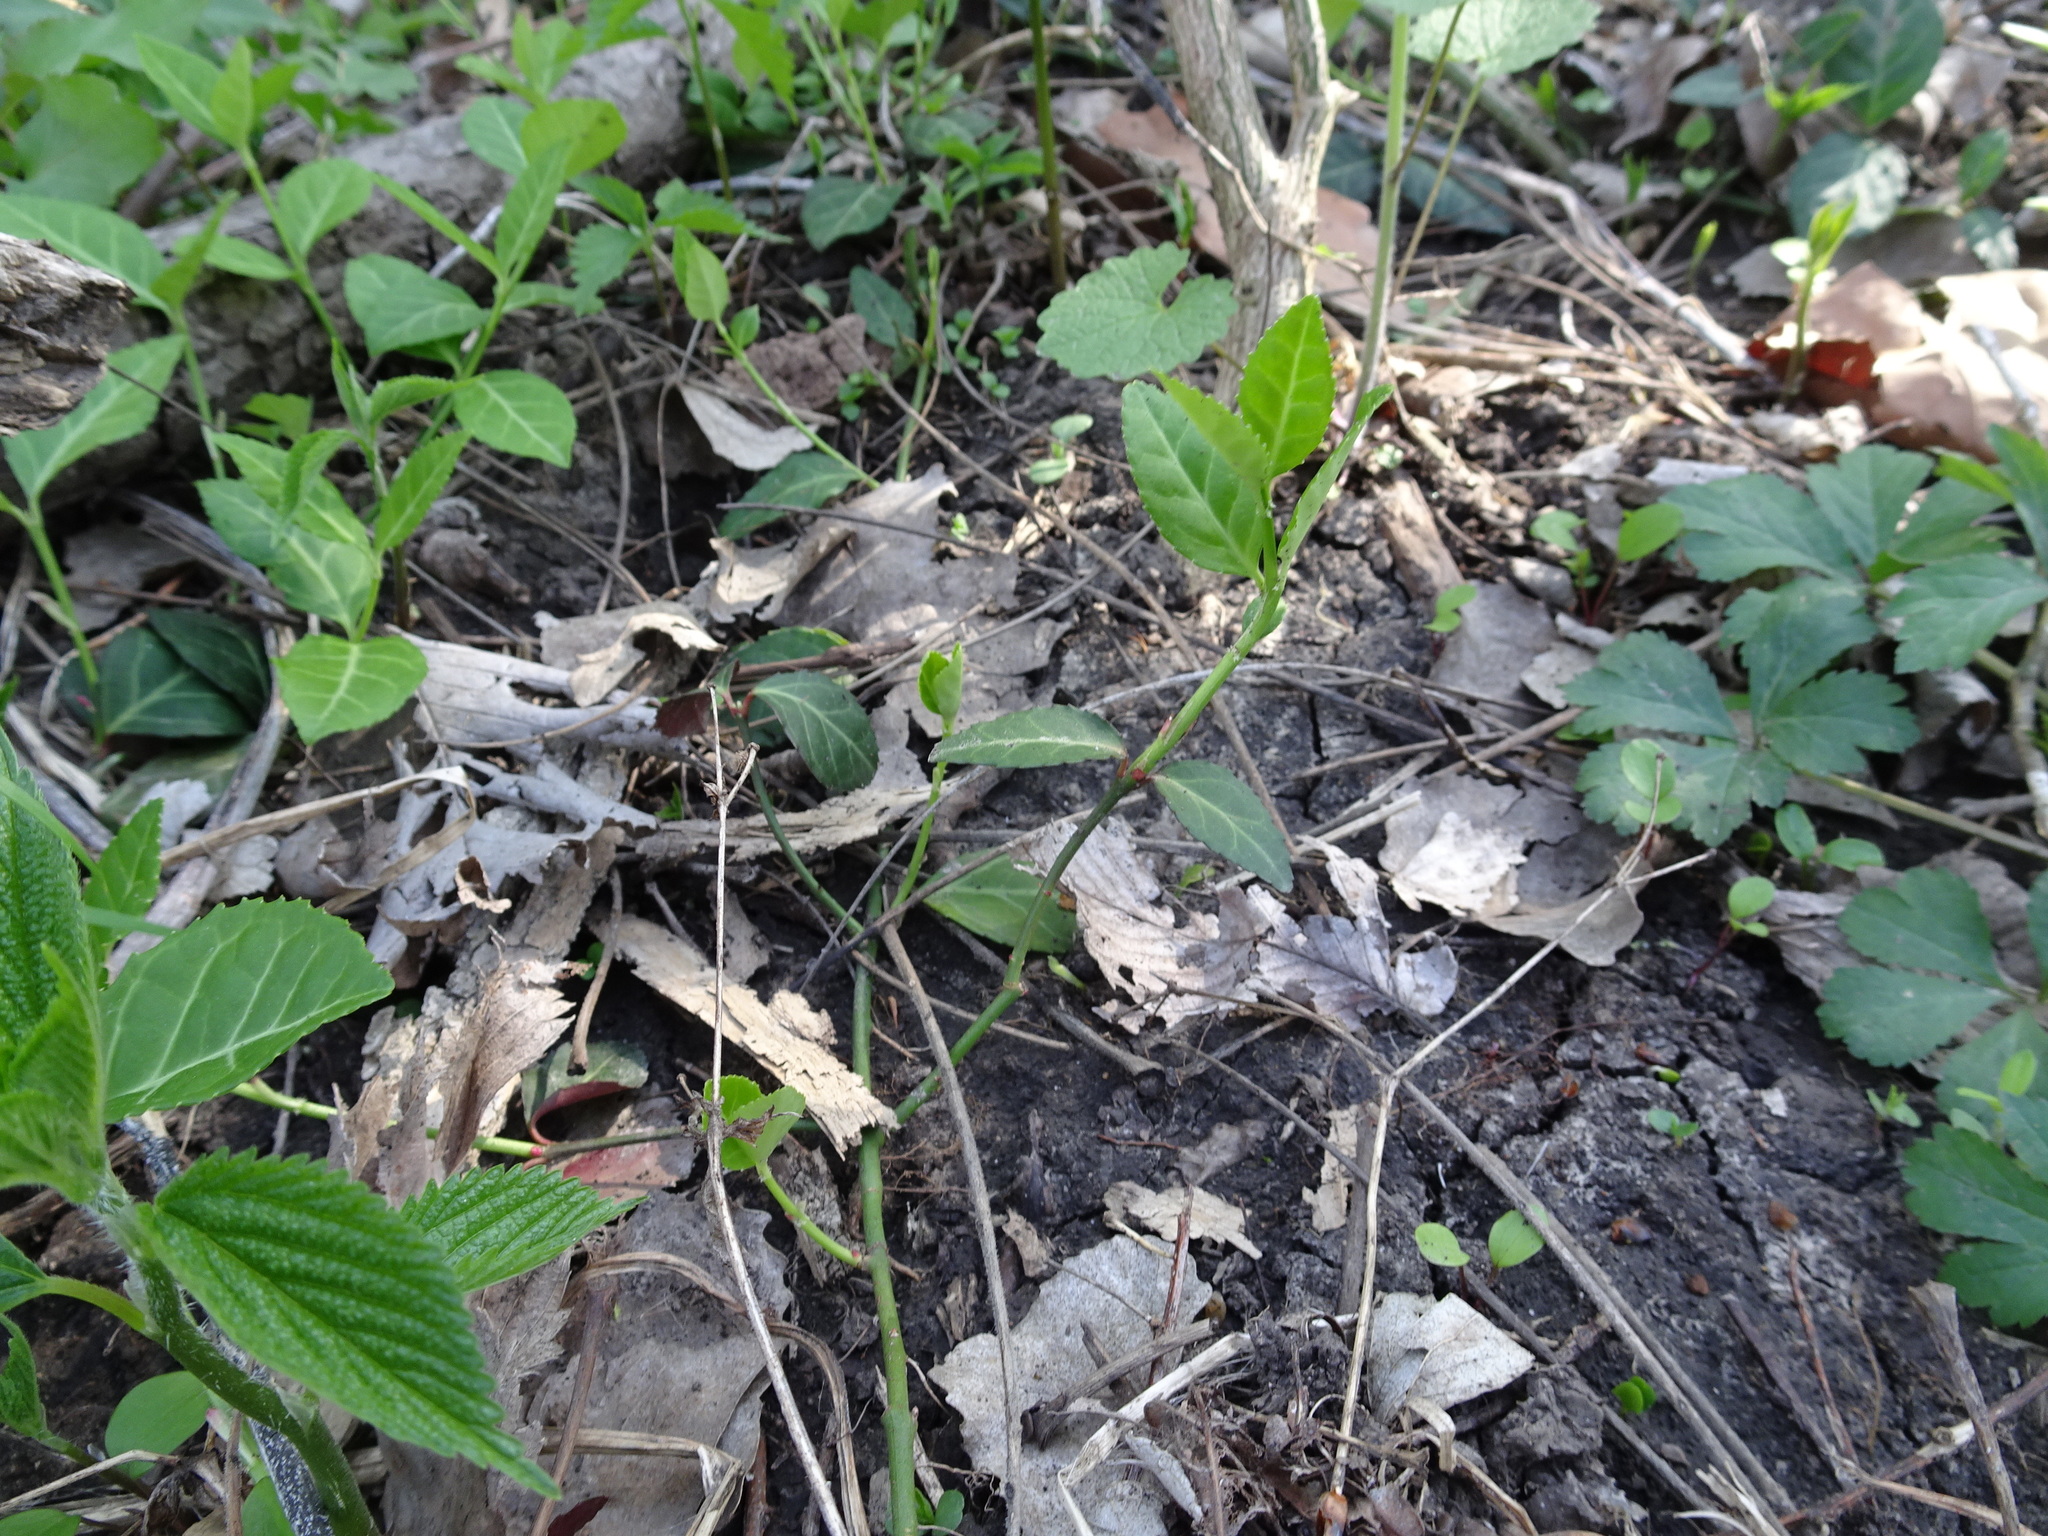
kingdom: Plantae
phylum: Tracheophyta
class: Magnoliopsida
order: Celastrales
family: Celastraceae
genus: Euonymus
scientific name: Euonymus fortunei
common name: Climbing euonymus
